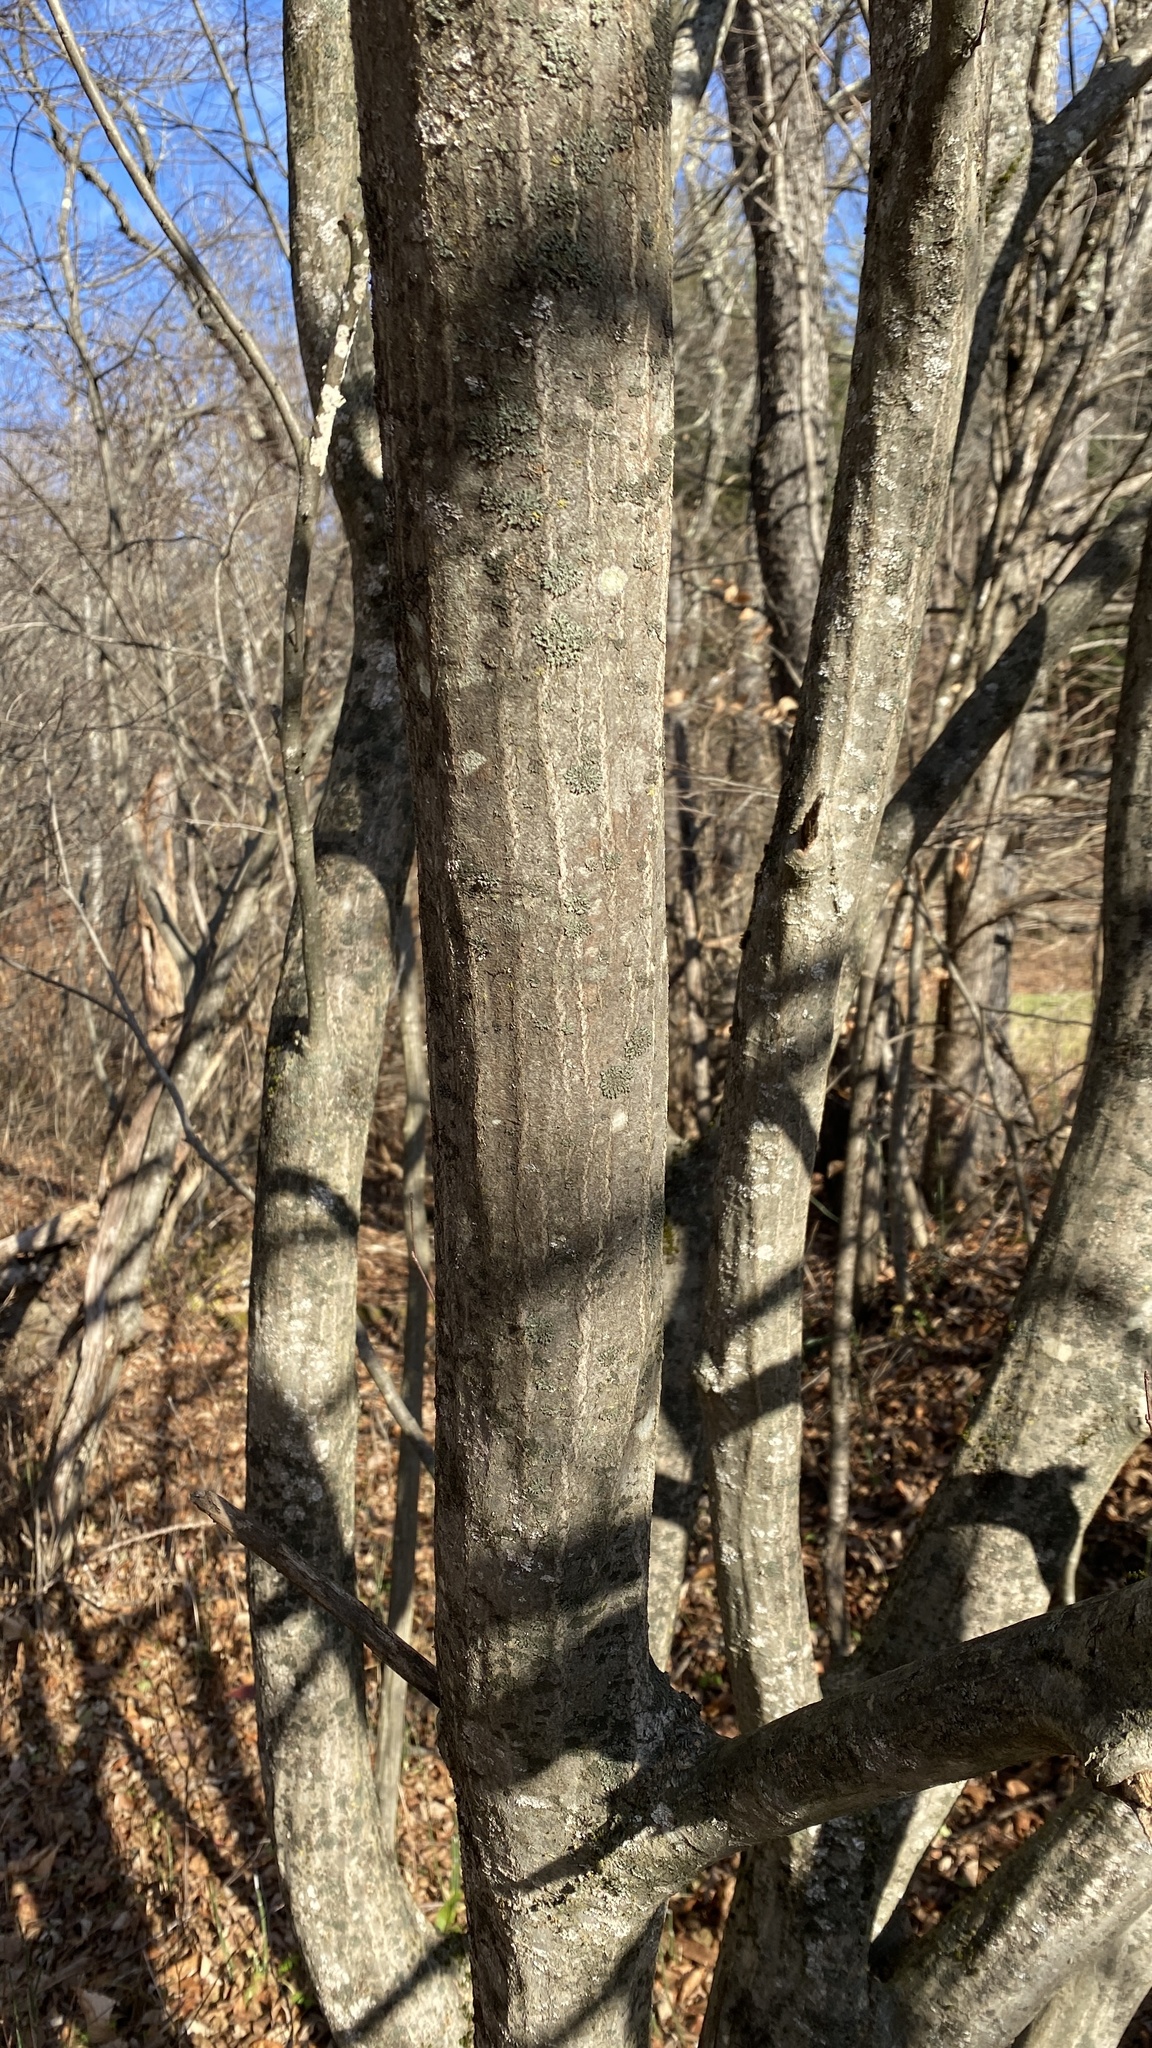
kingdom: Plantae
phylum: Tracheophyta
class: Magnoliopsida
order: Fagales
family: Betulaceae
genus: Carpinus
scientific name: Carpinus caroliniana
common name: American hornbeam
